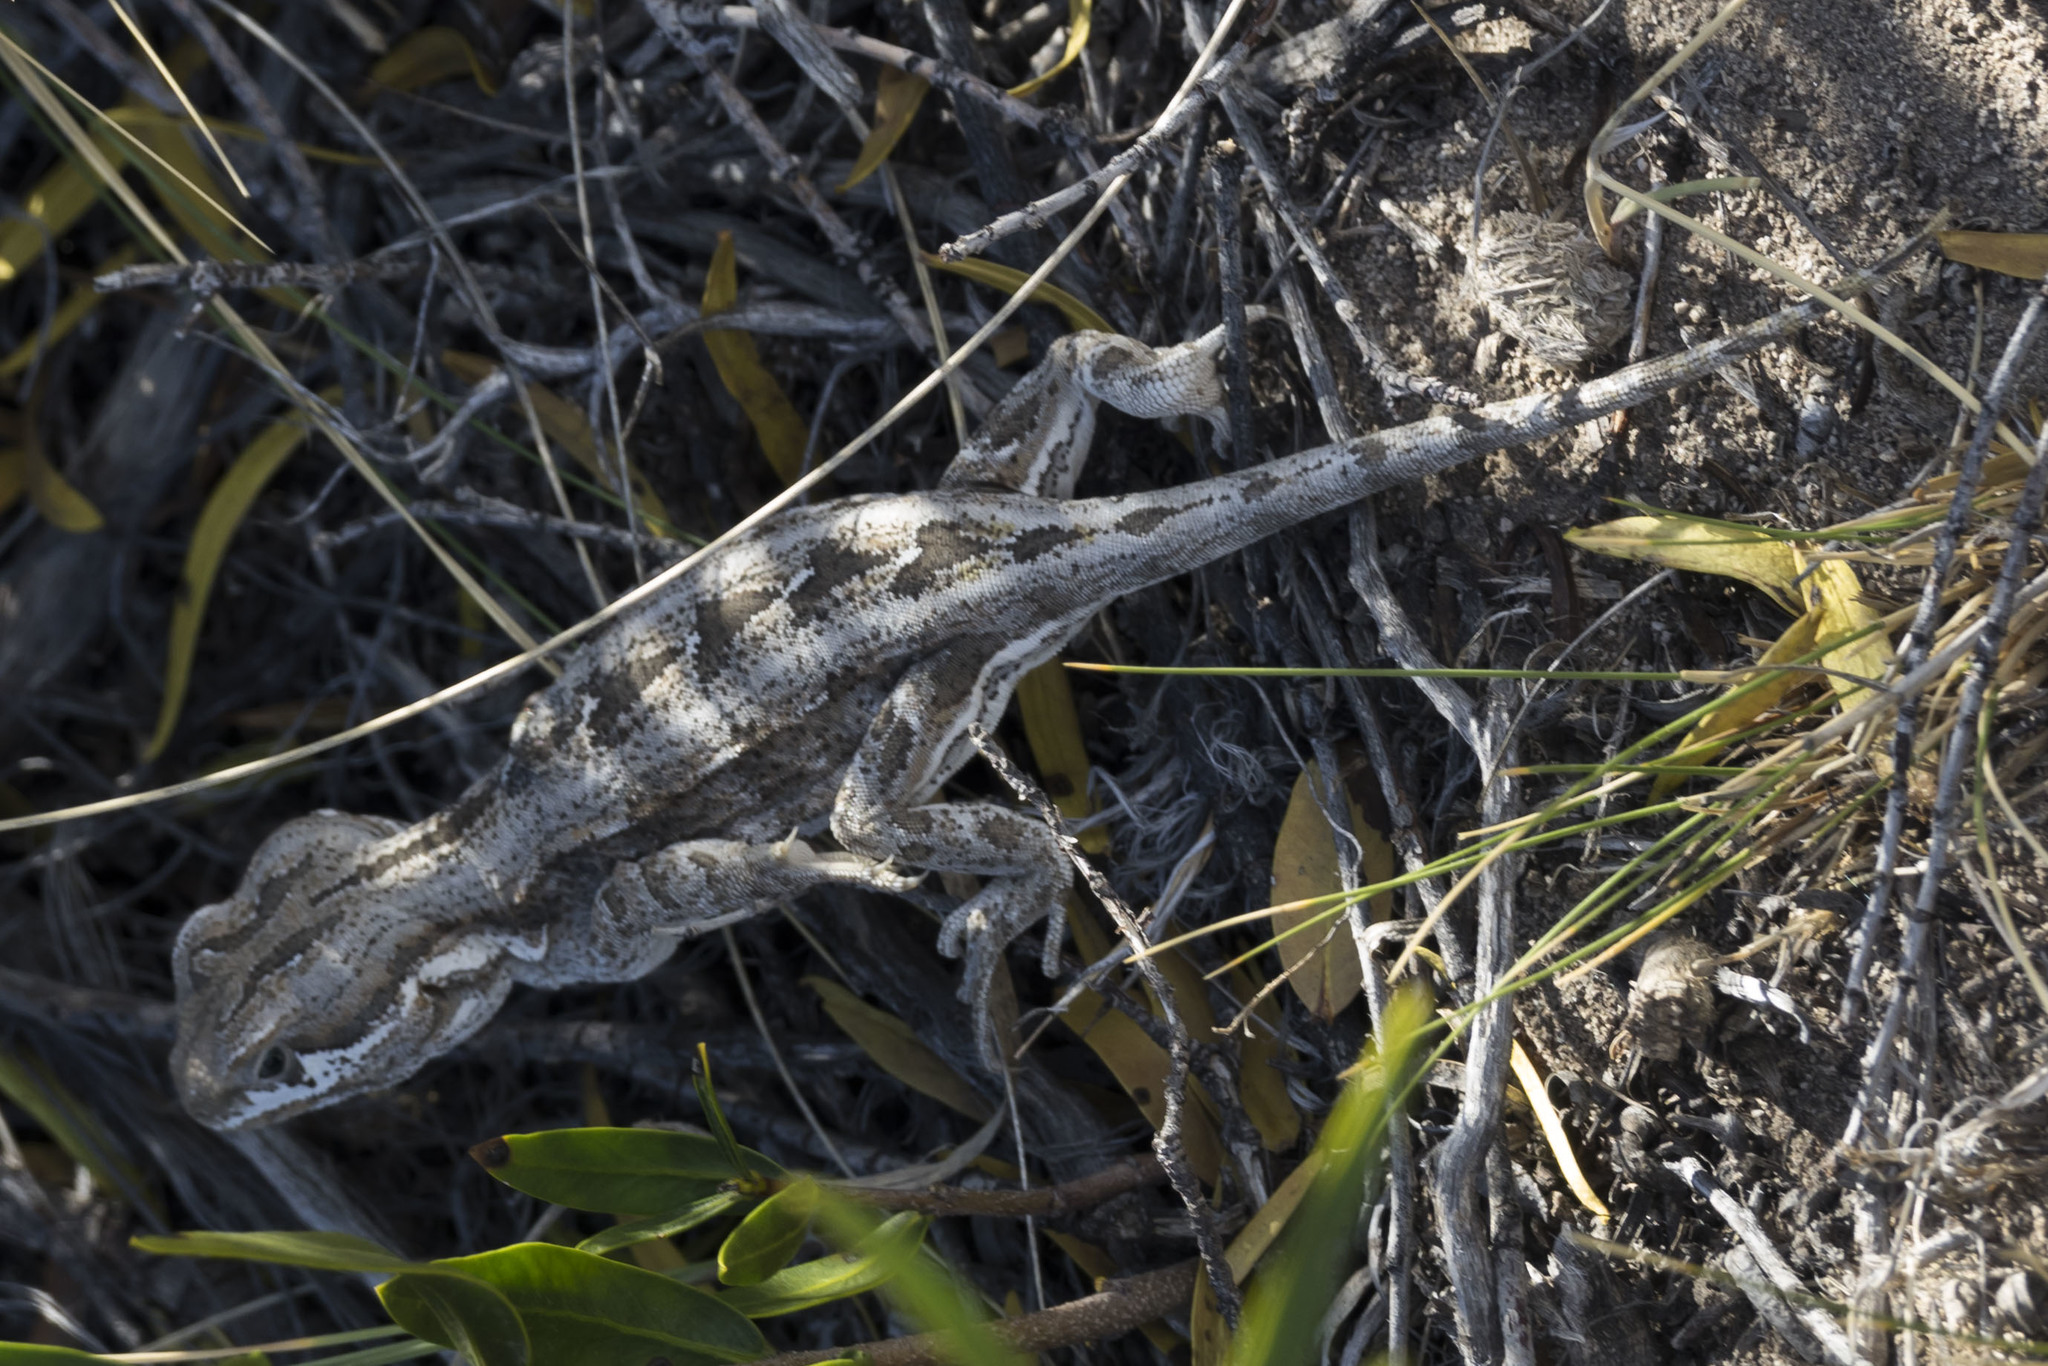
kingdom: Animalia
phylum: Chordata
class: Squamata
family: Leiosauridae
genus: Leiosaurus
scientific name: Leiosaurus bellii
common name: Bell's anole
